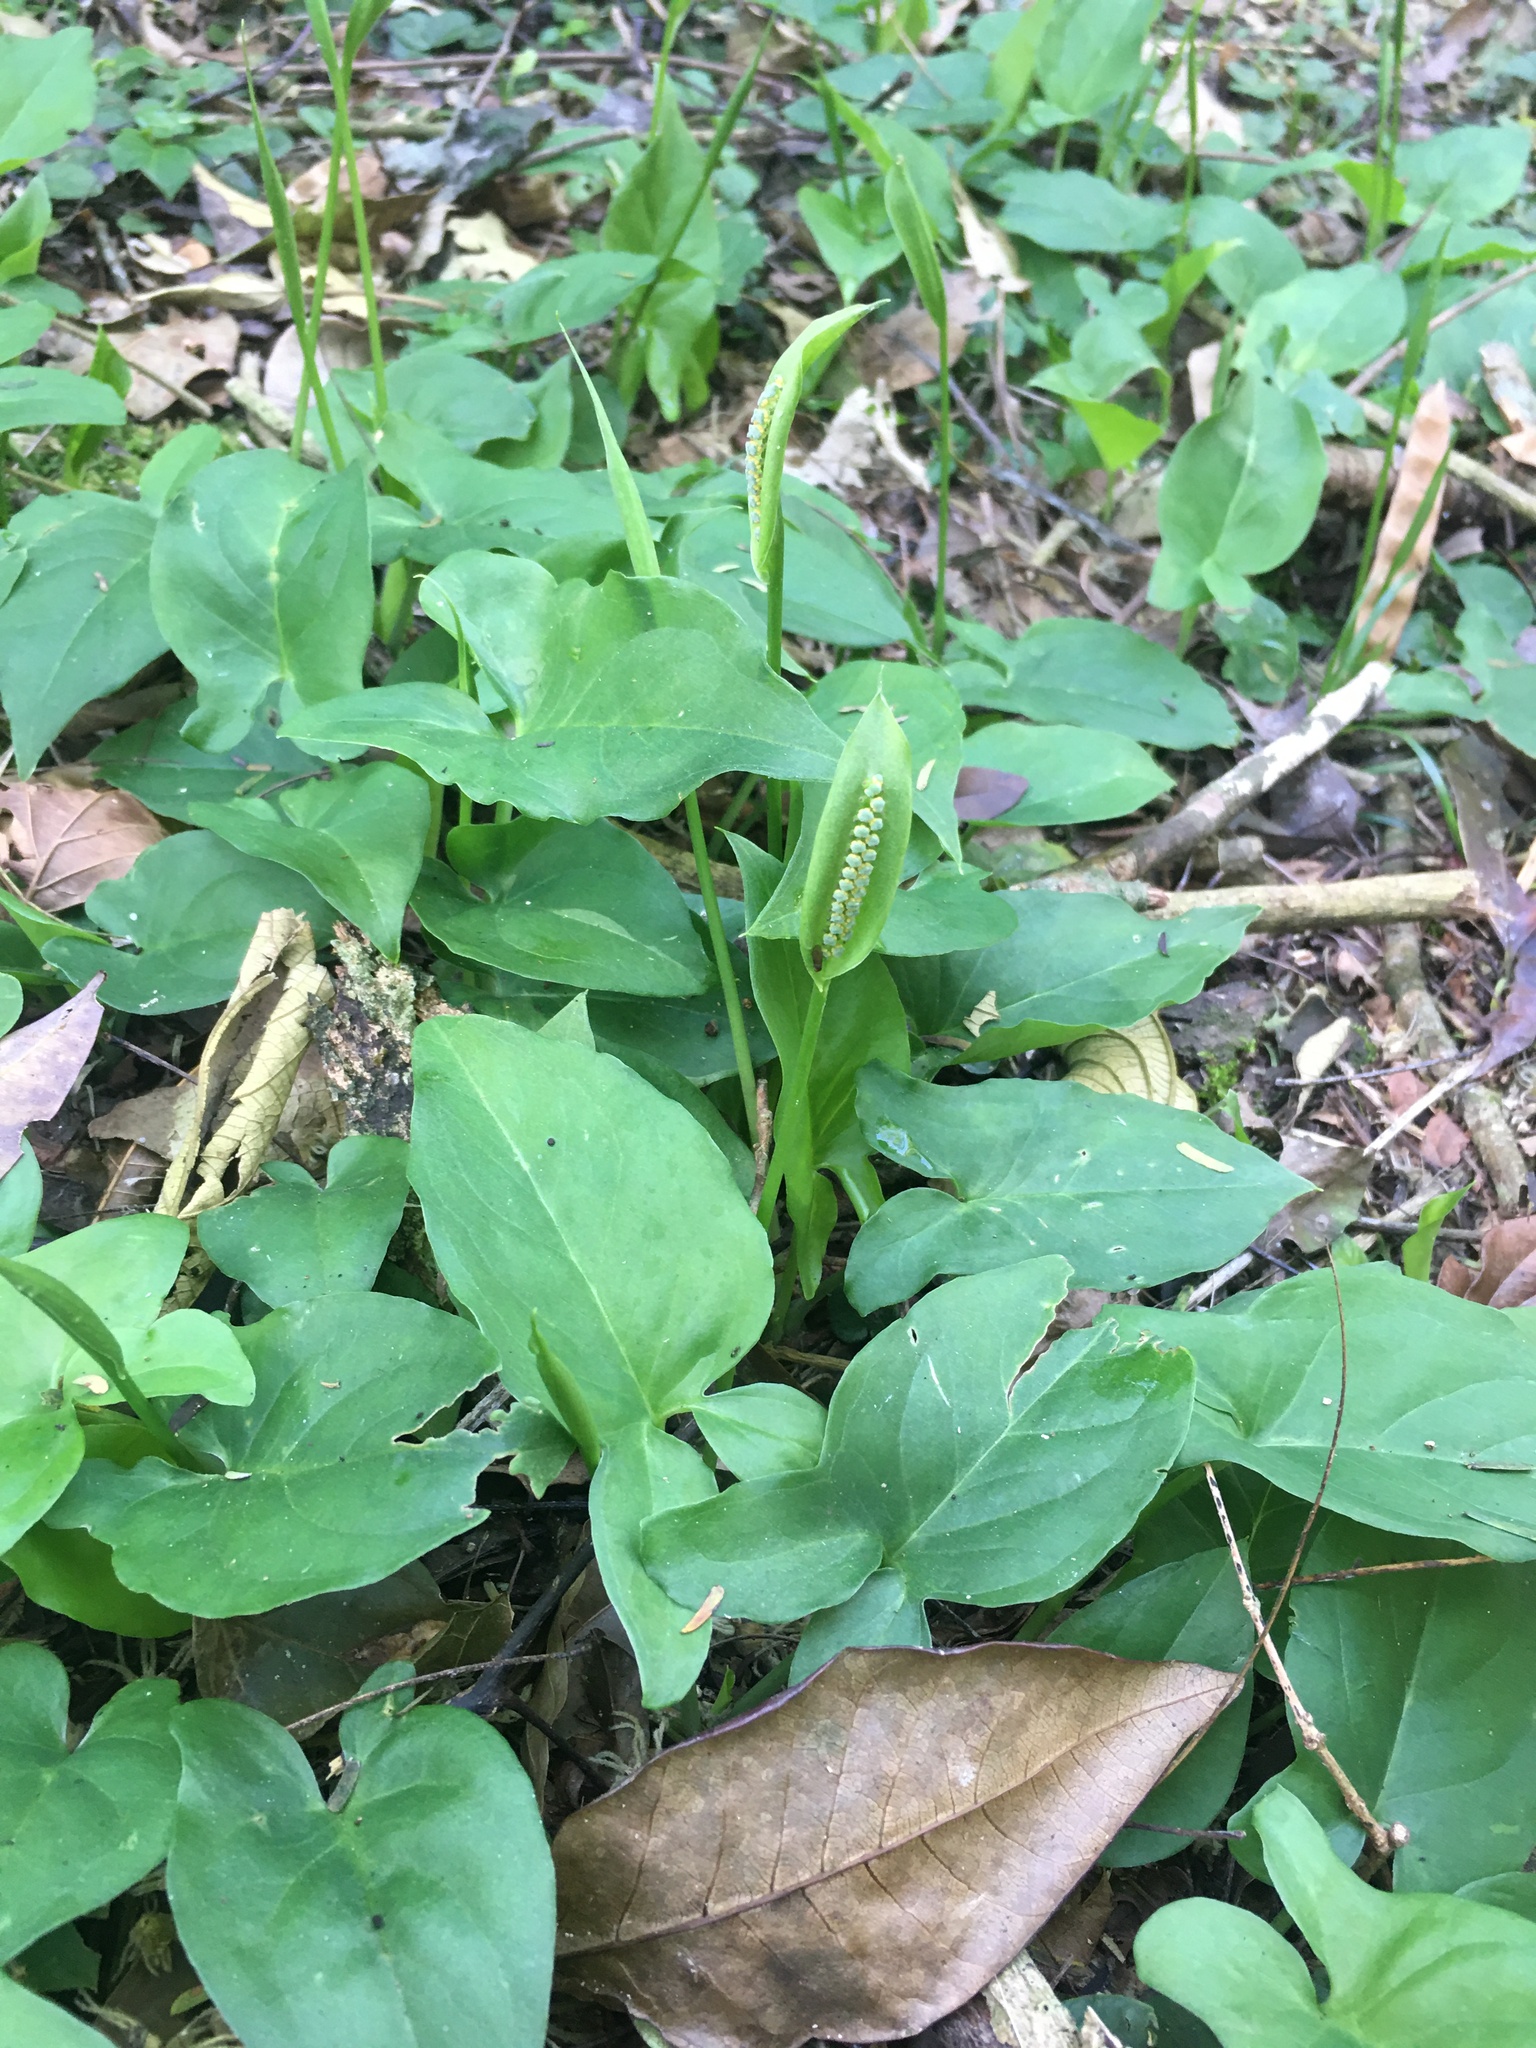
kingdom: Plantae
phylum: Tracheophyta
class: Liliopsida
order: Alismatales
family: Araceae
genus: Spathicarpa
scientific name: Spathicarpa hastifolia
